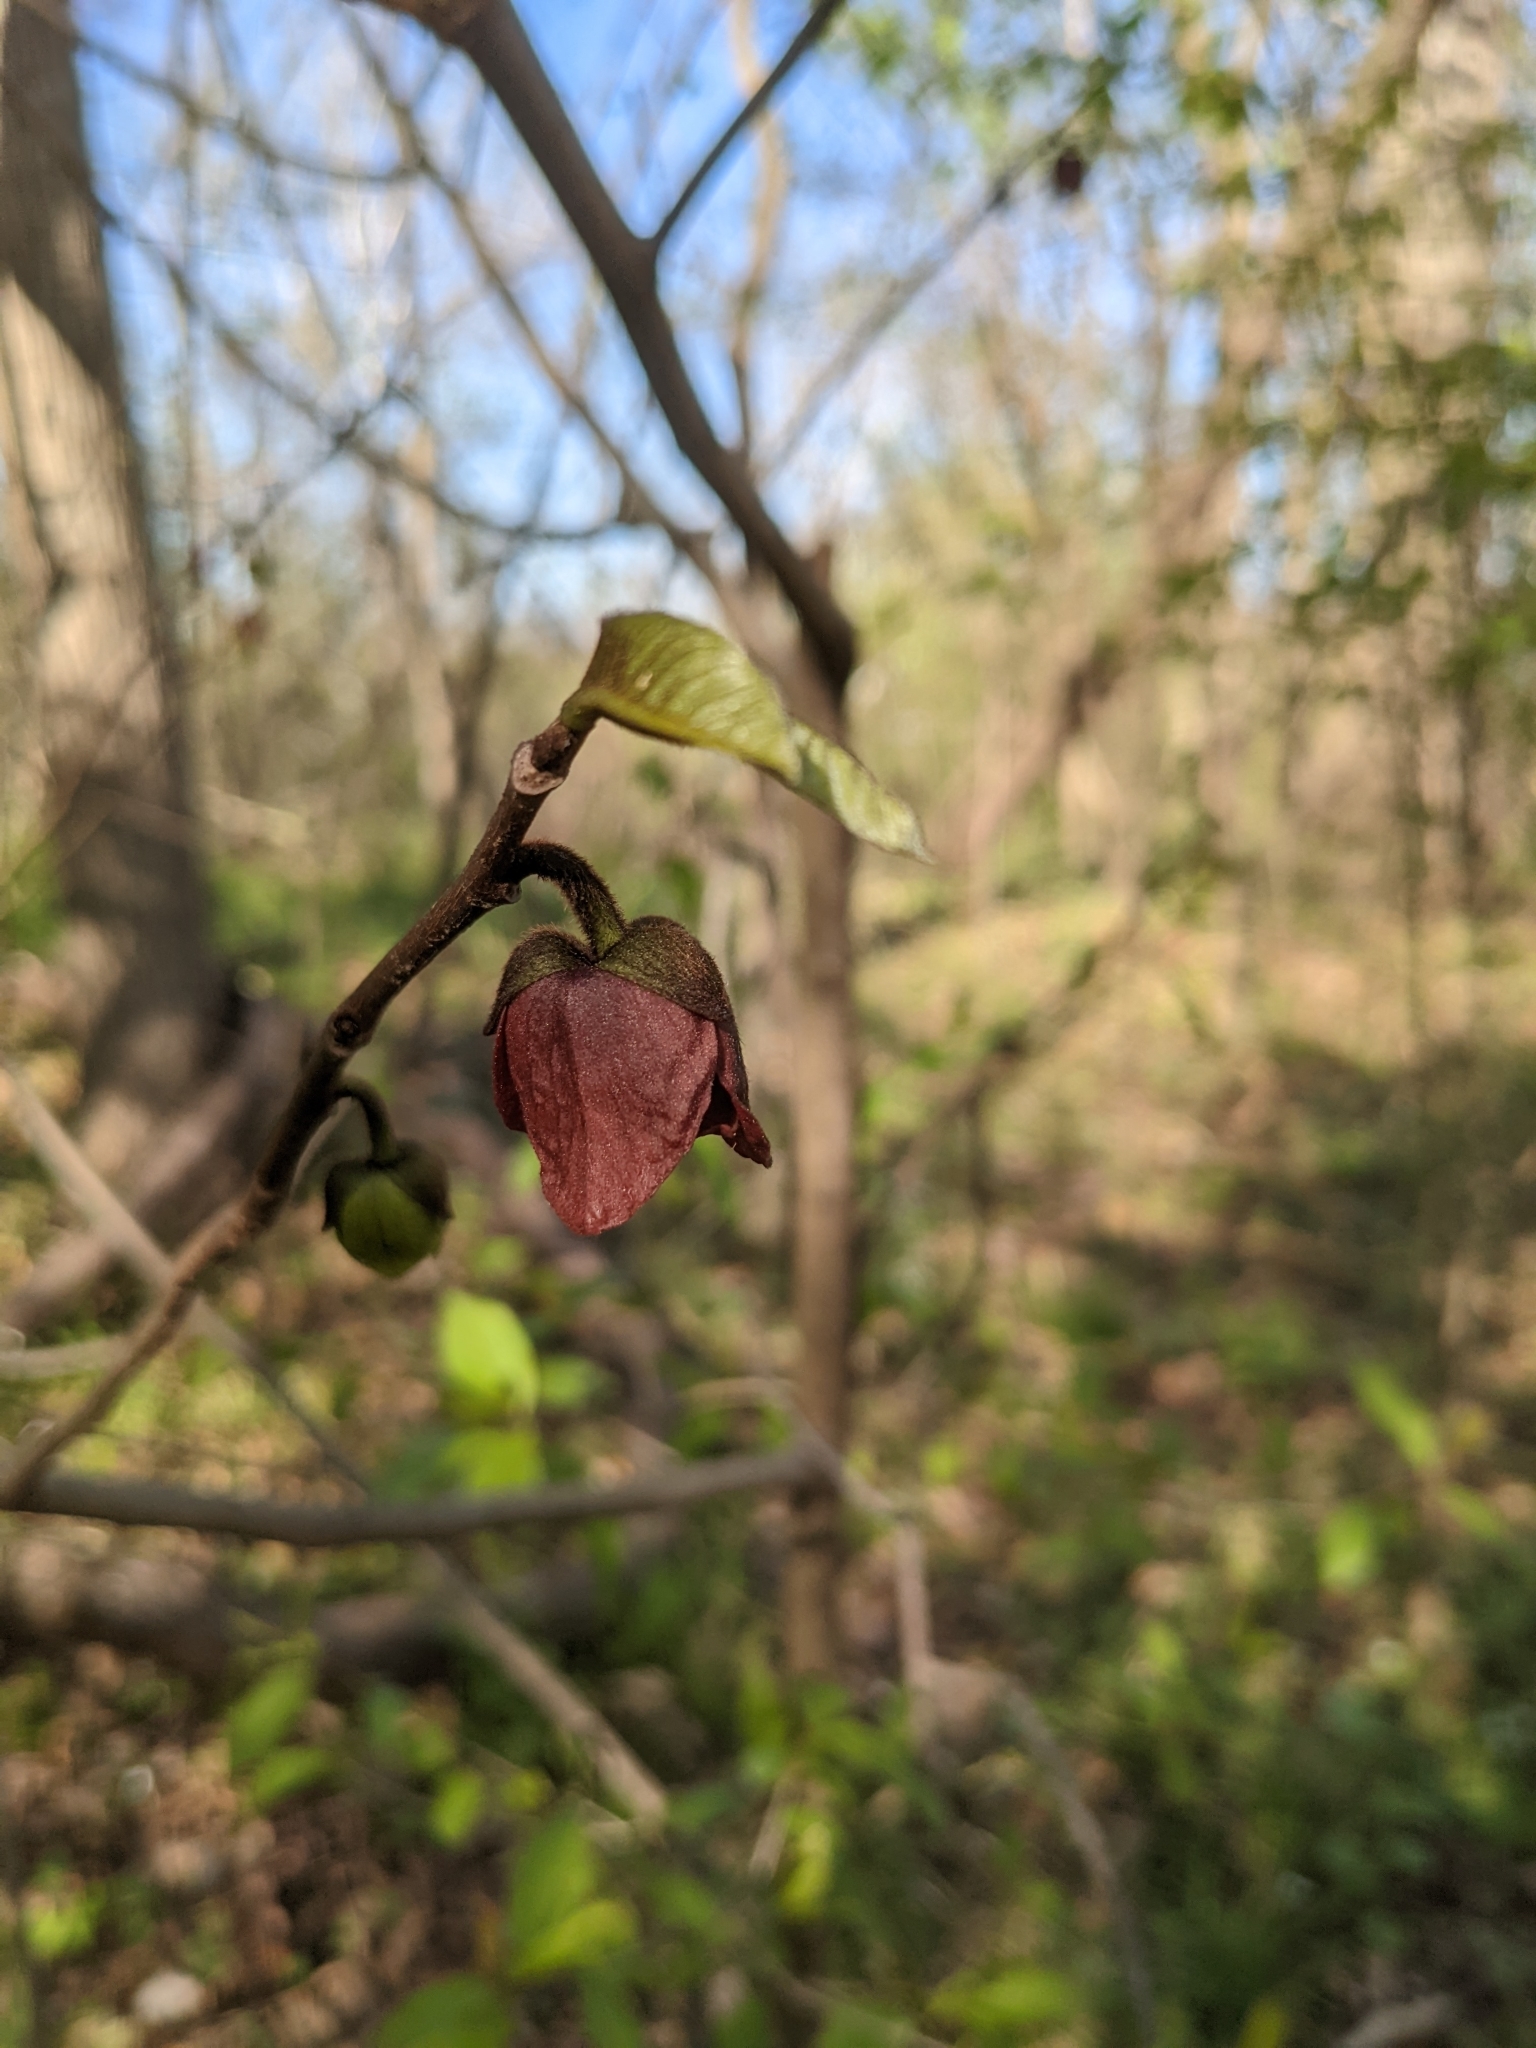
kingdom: Plantae
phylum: Tracheophyta
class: Magnoliopsida
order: Magnoliales
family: Annonaceae
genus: Asimina
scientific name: Asimina triloba
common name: Dog-banana
